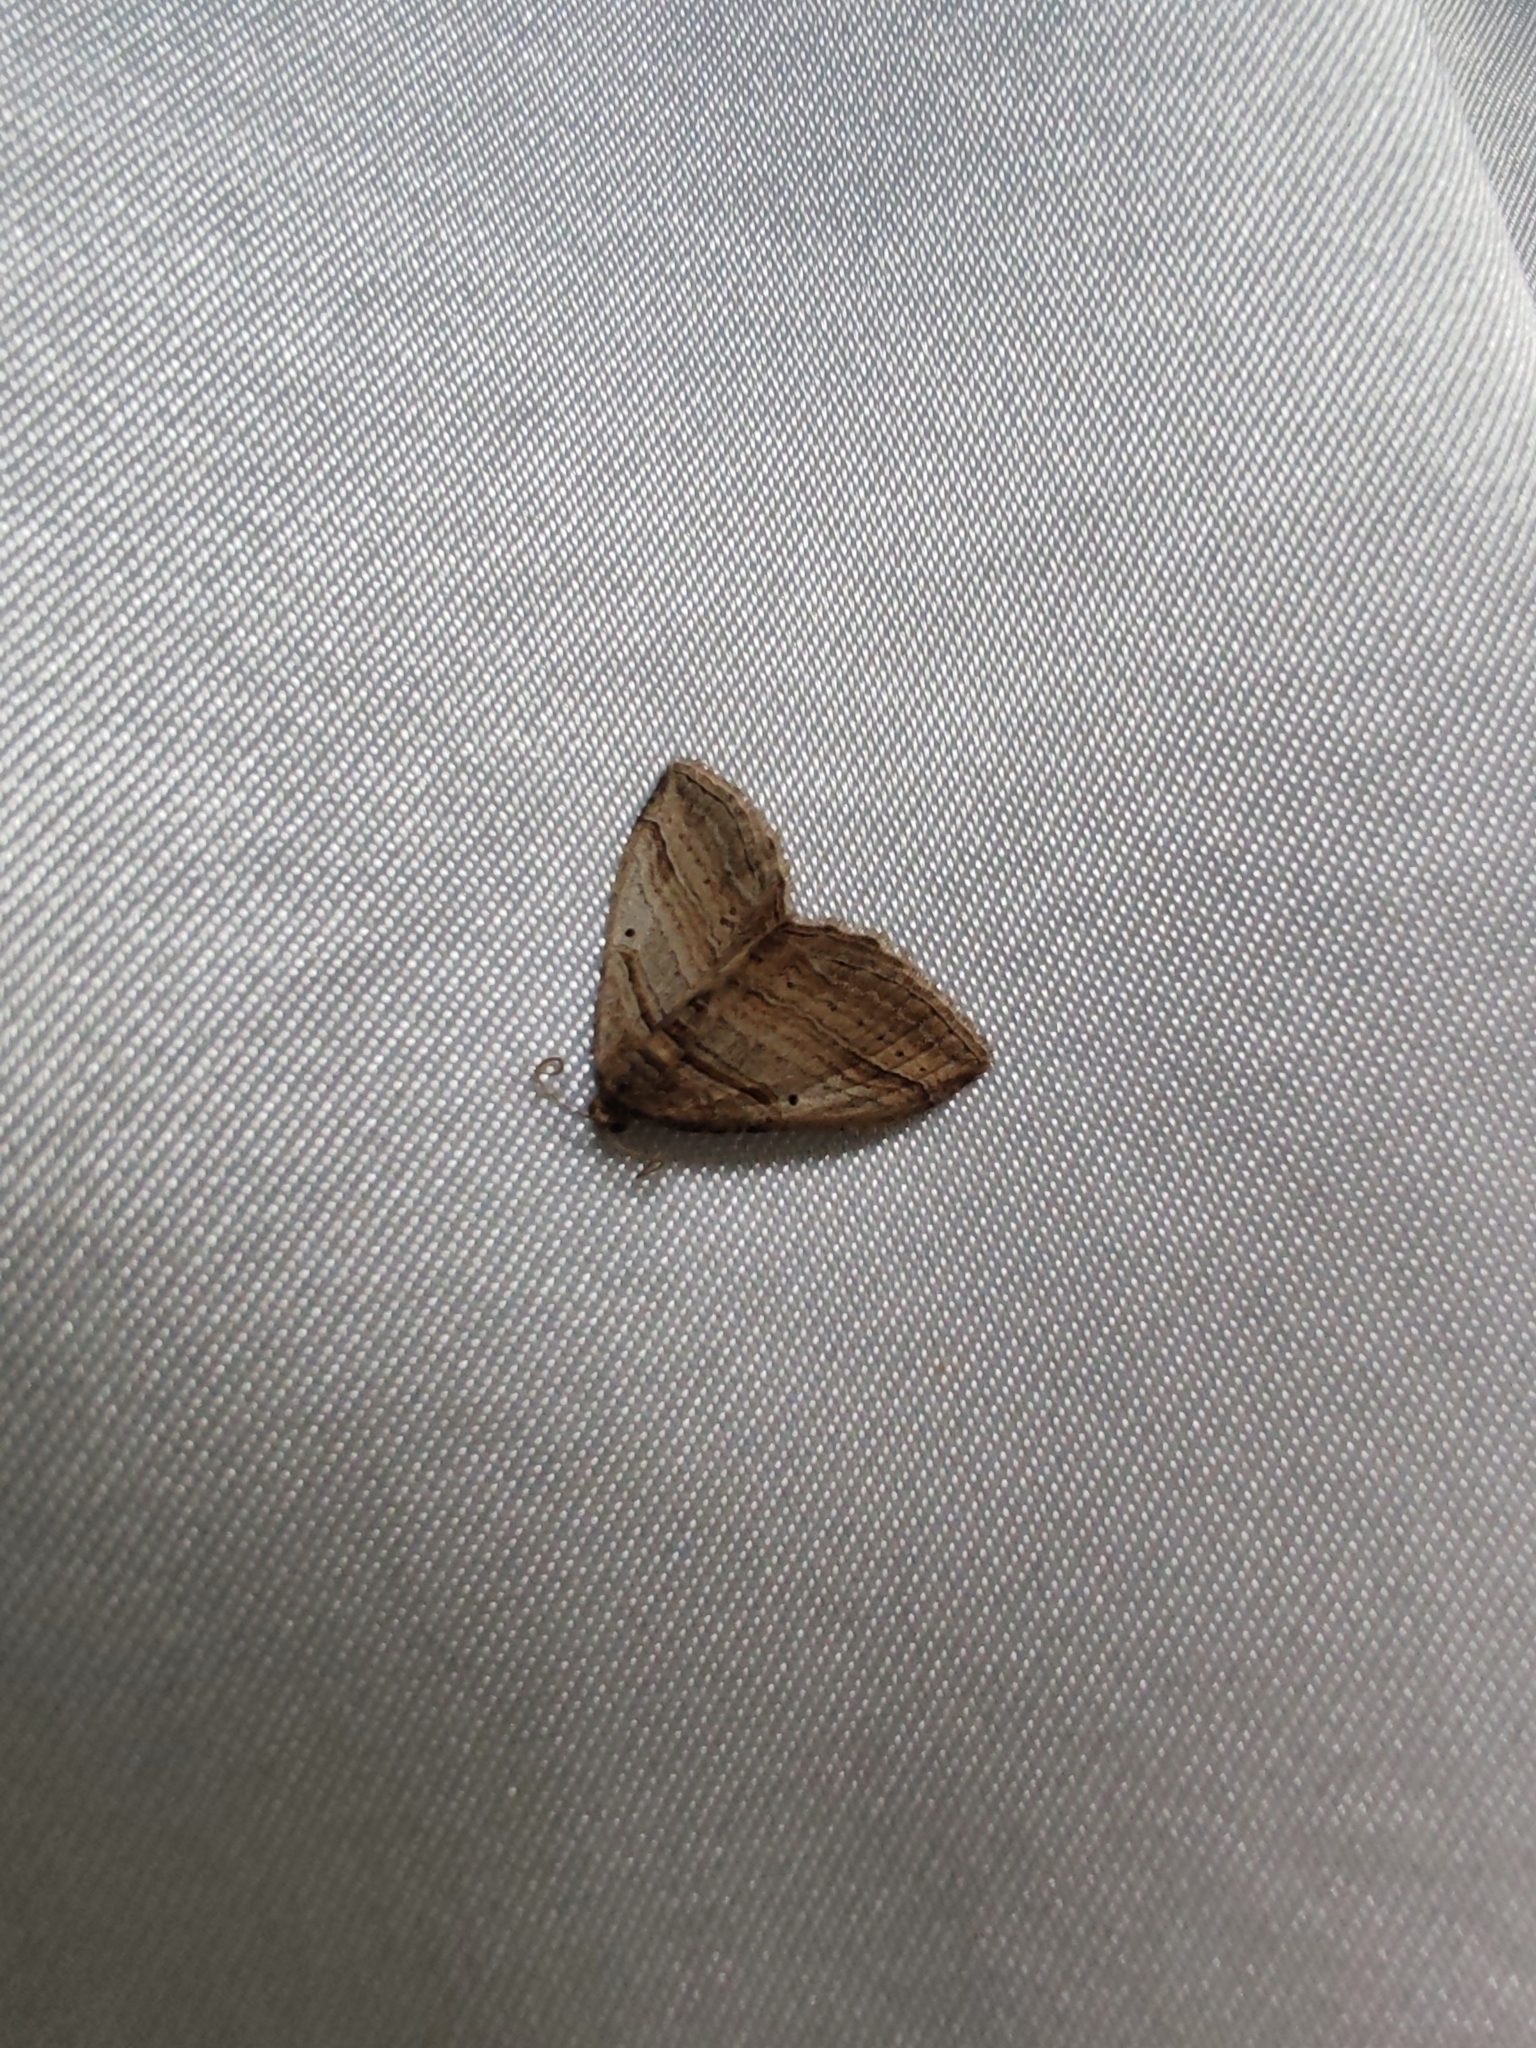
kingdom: Animalia
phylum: Arthropoda
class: Insecta
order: Lepidoptera
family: Geometridae
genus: Costaconvexa
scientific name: Costaconvexa polygrammata
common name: Many-lined
